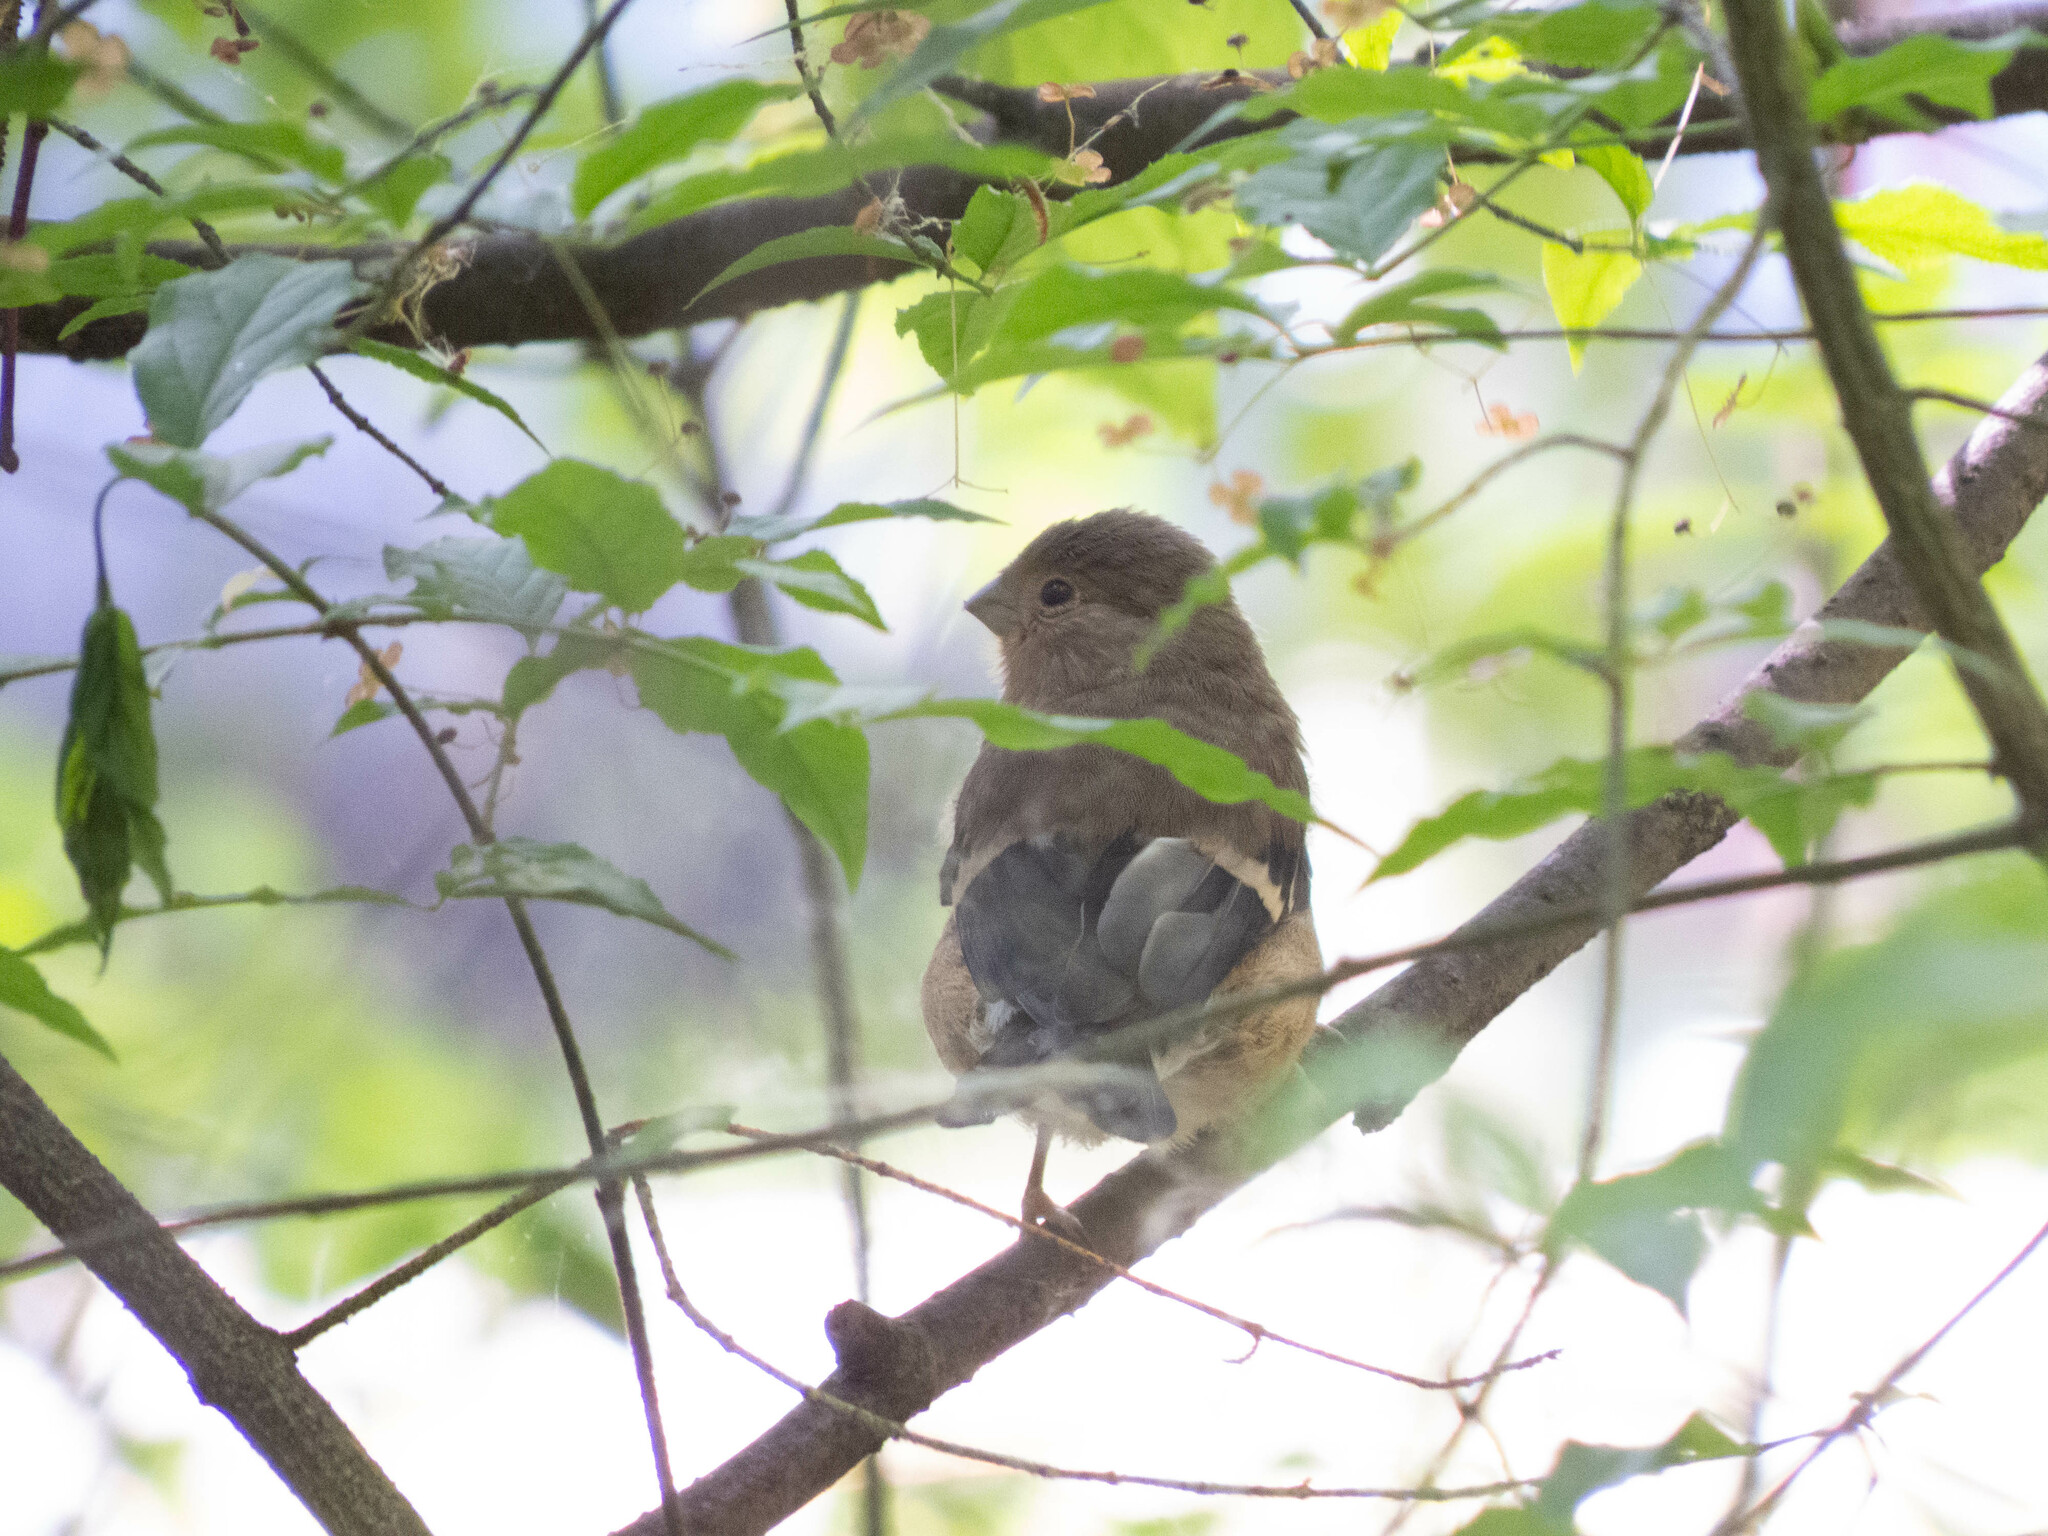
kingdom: Animalia
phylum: Chordata
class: Aves
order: Passeriformes
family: Fringillidae
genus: Pyrrhula
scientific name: Pyrrhula pyrrhula
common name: Eurasian bullfinch
